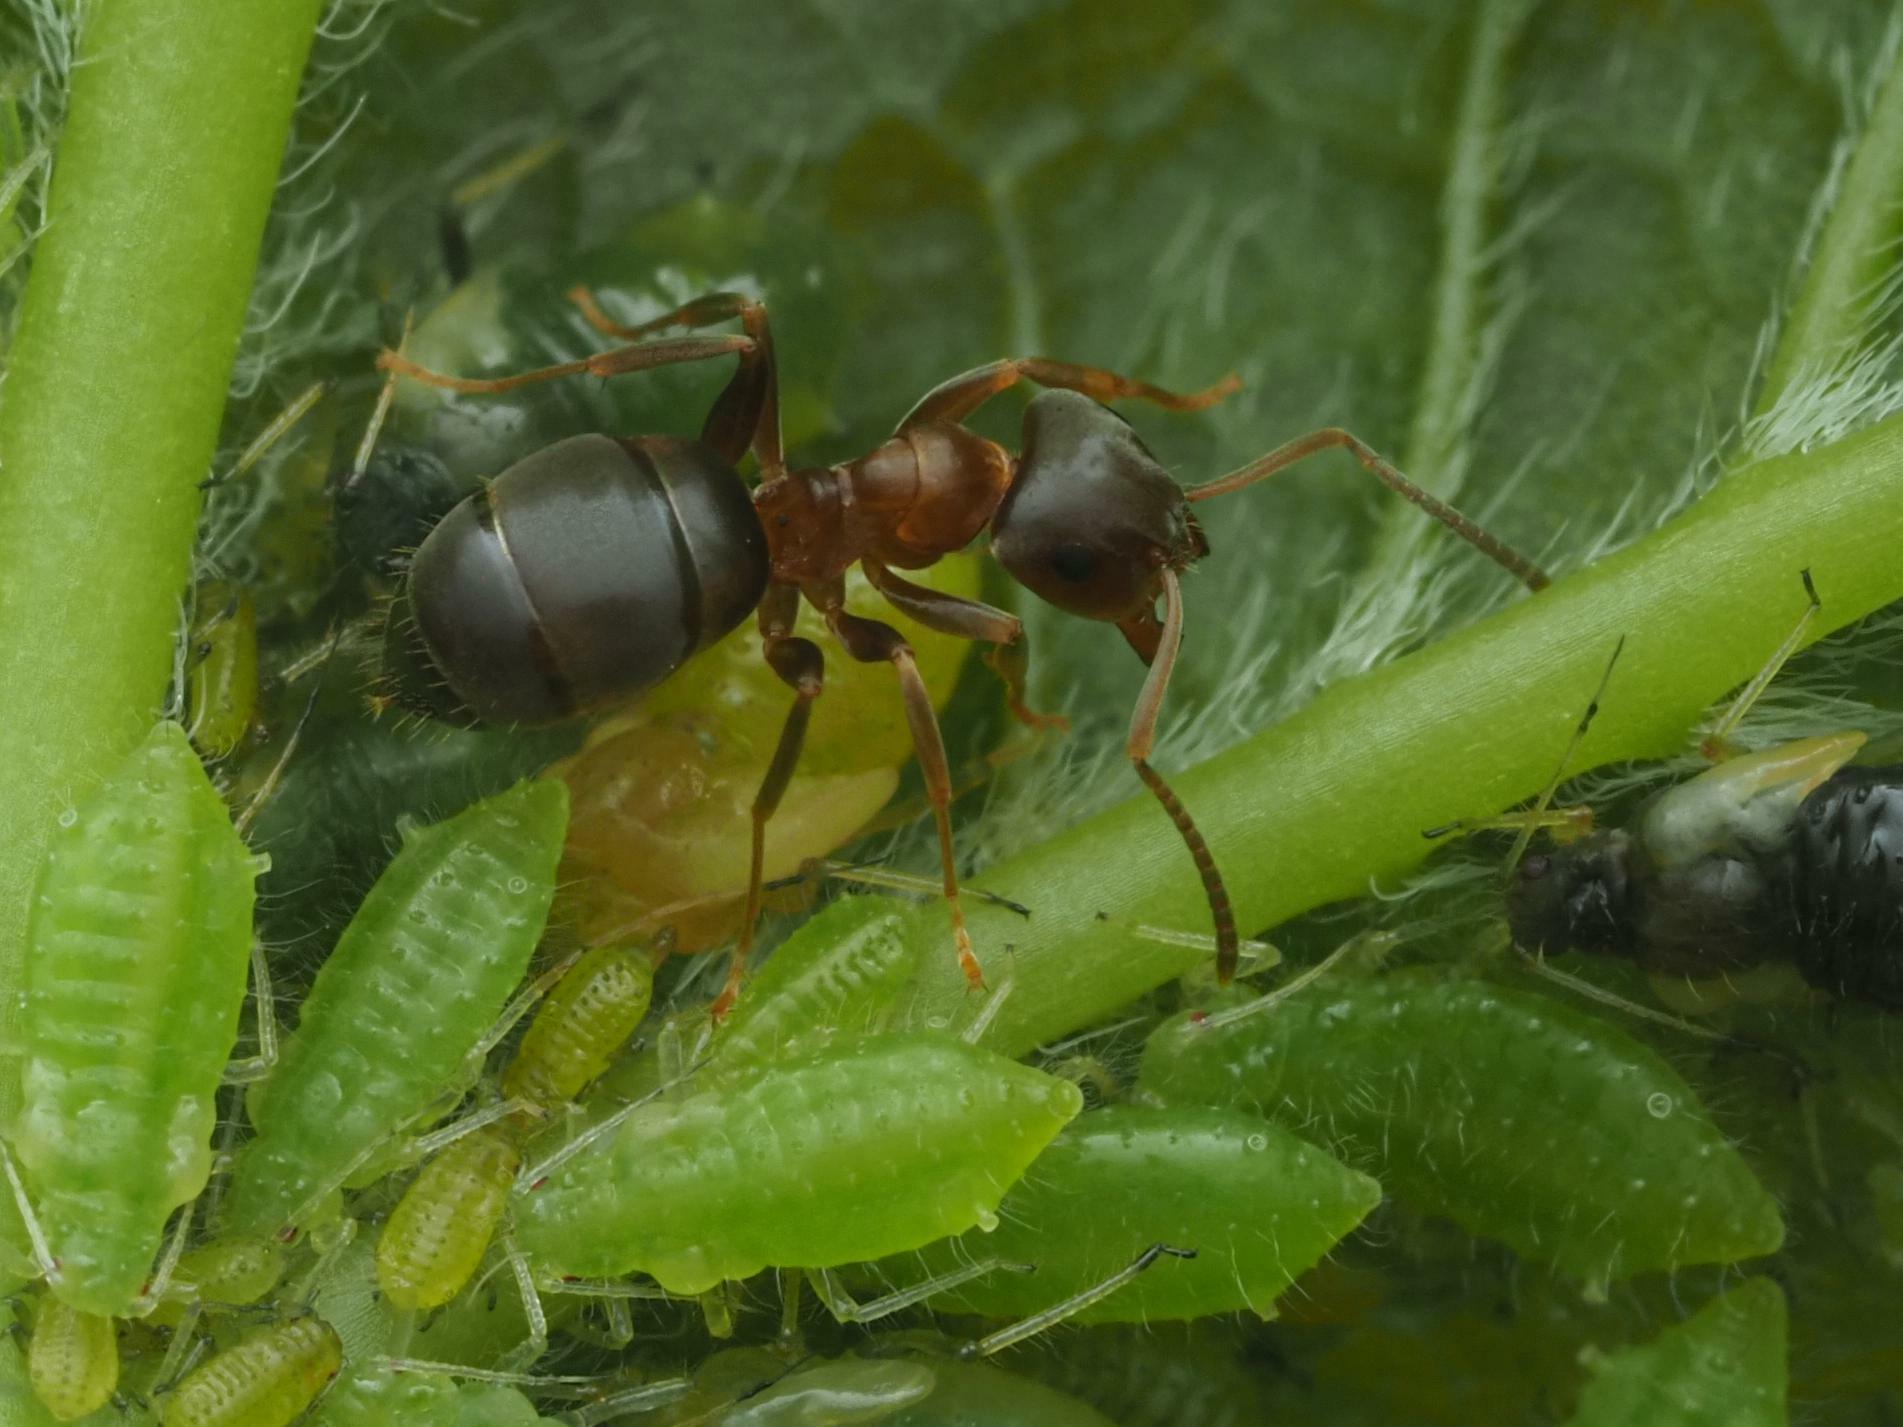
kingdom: Animalia
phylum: Arthropoda
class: Insecta
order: Hymenoptera
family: Formicidae
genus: Lasius
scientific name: Lasius brunneus
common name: Brown ant
